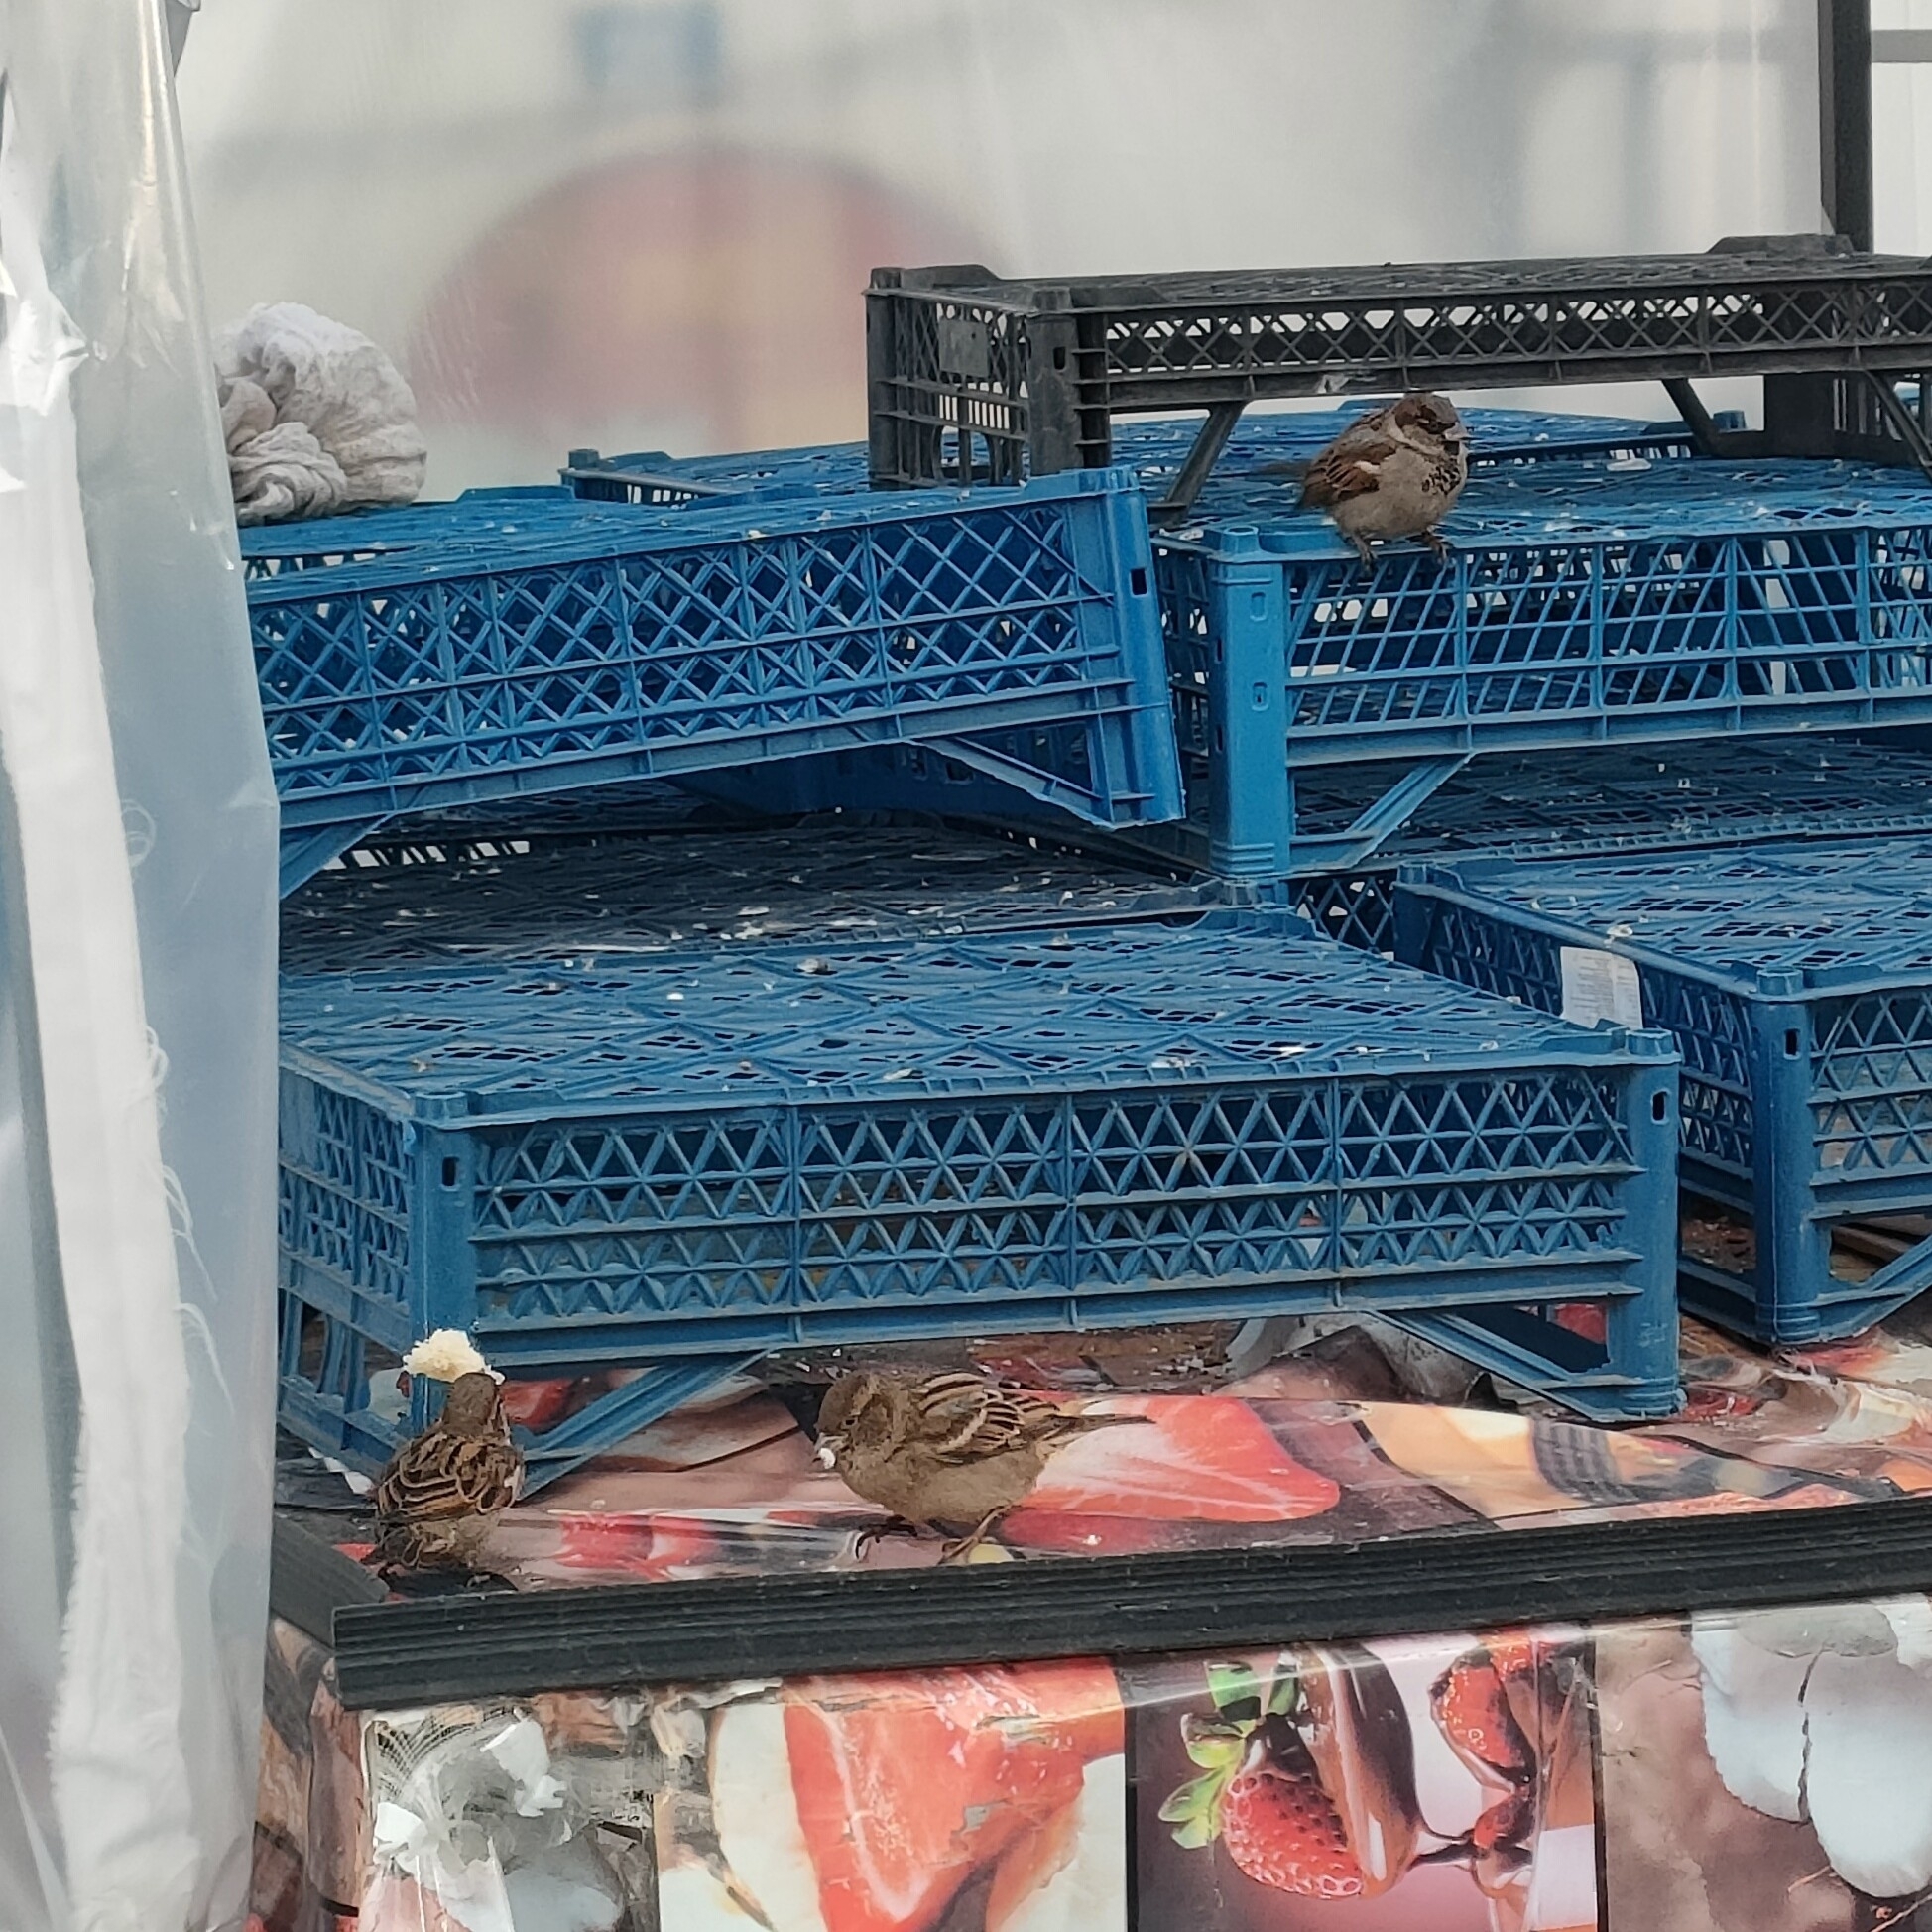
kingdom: Animalia
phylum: Chordata
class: Aves
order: Passeriformes
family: Passeridae
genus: Passer
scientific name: Passer domesticus
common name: House sparrow
